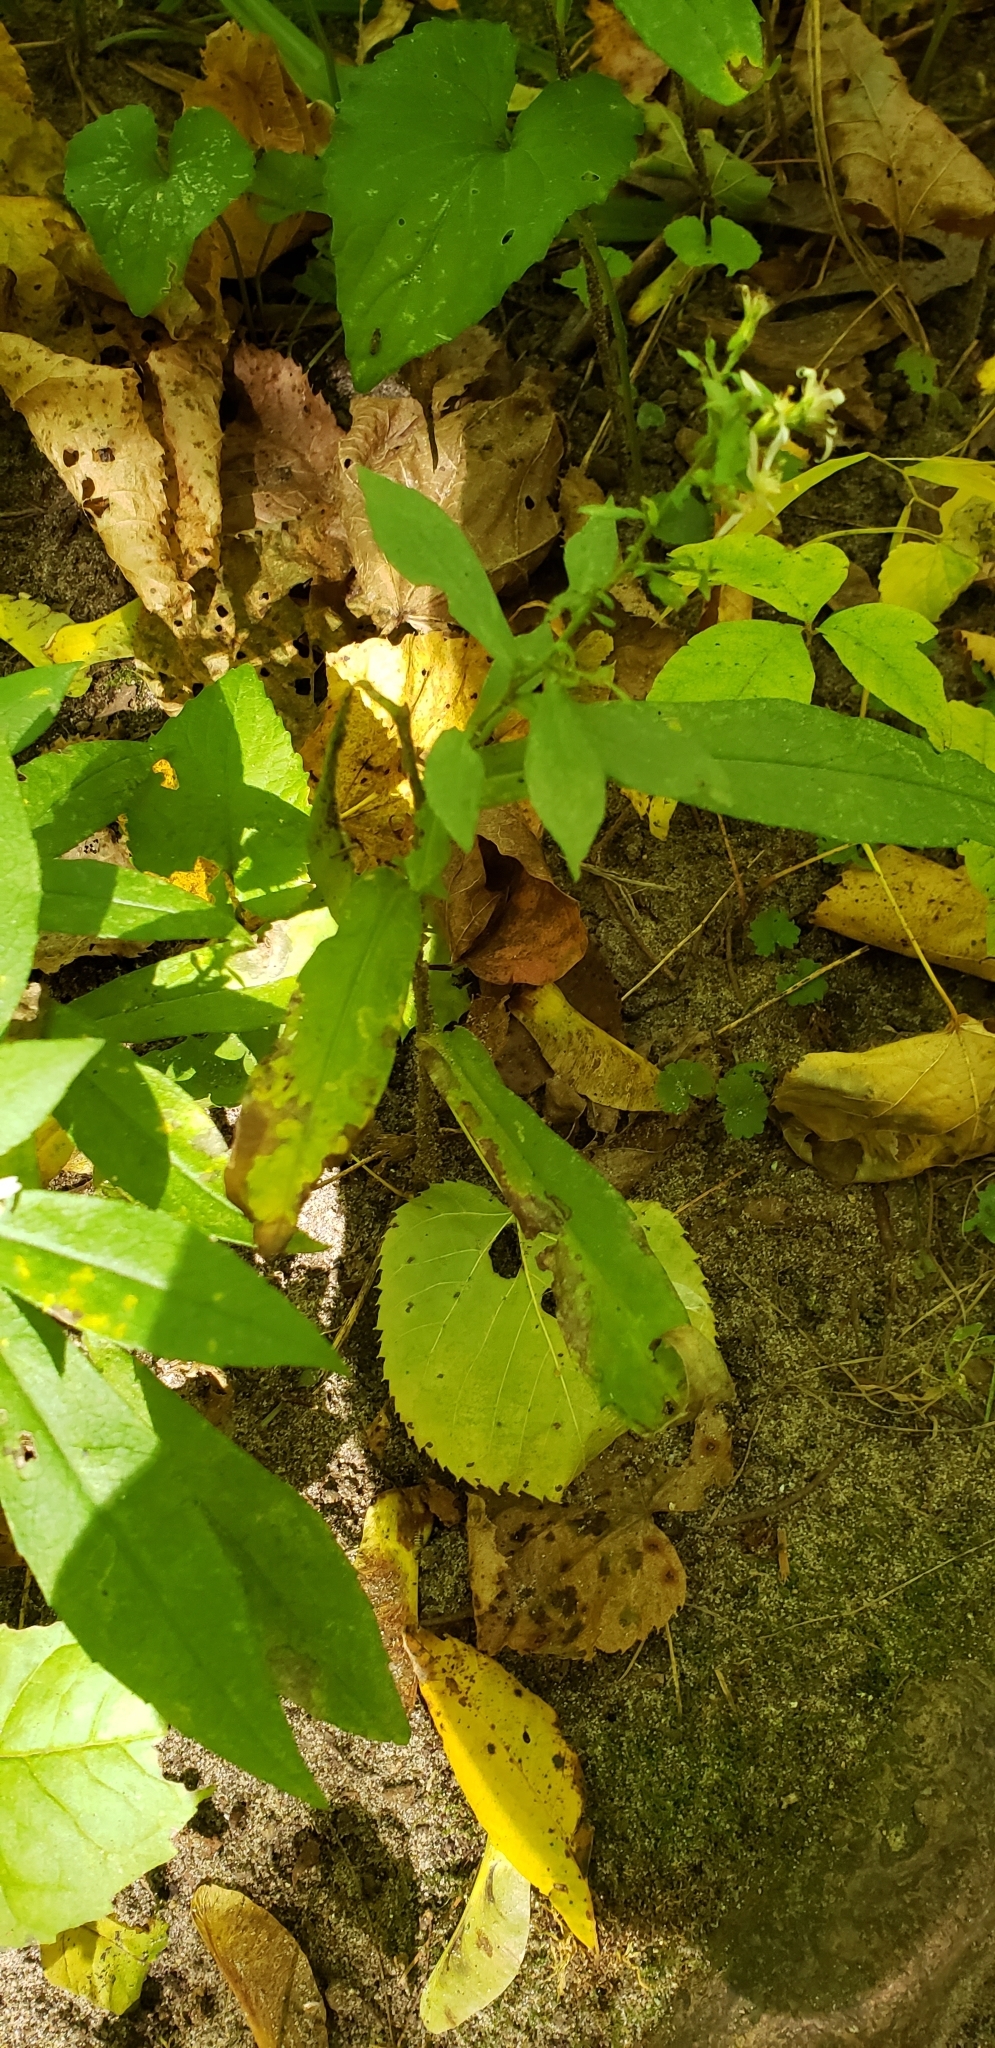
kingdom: Plantae
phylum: Tracheophyta
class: Magnoliopsida
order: Asterales
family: Asteraceae
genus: Symphyotrichum
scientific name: Symphyotrichum lateriflorum
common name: Calico aster
